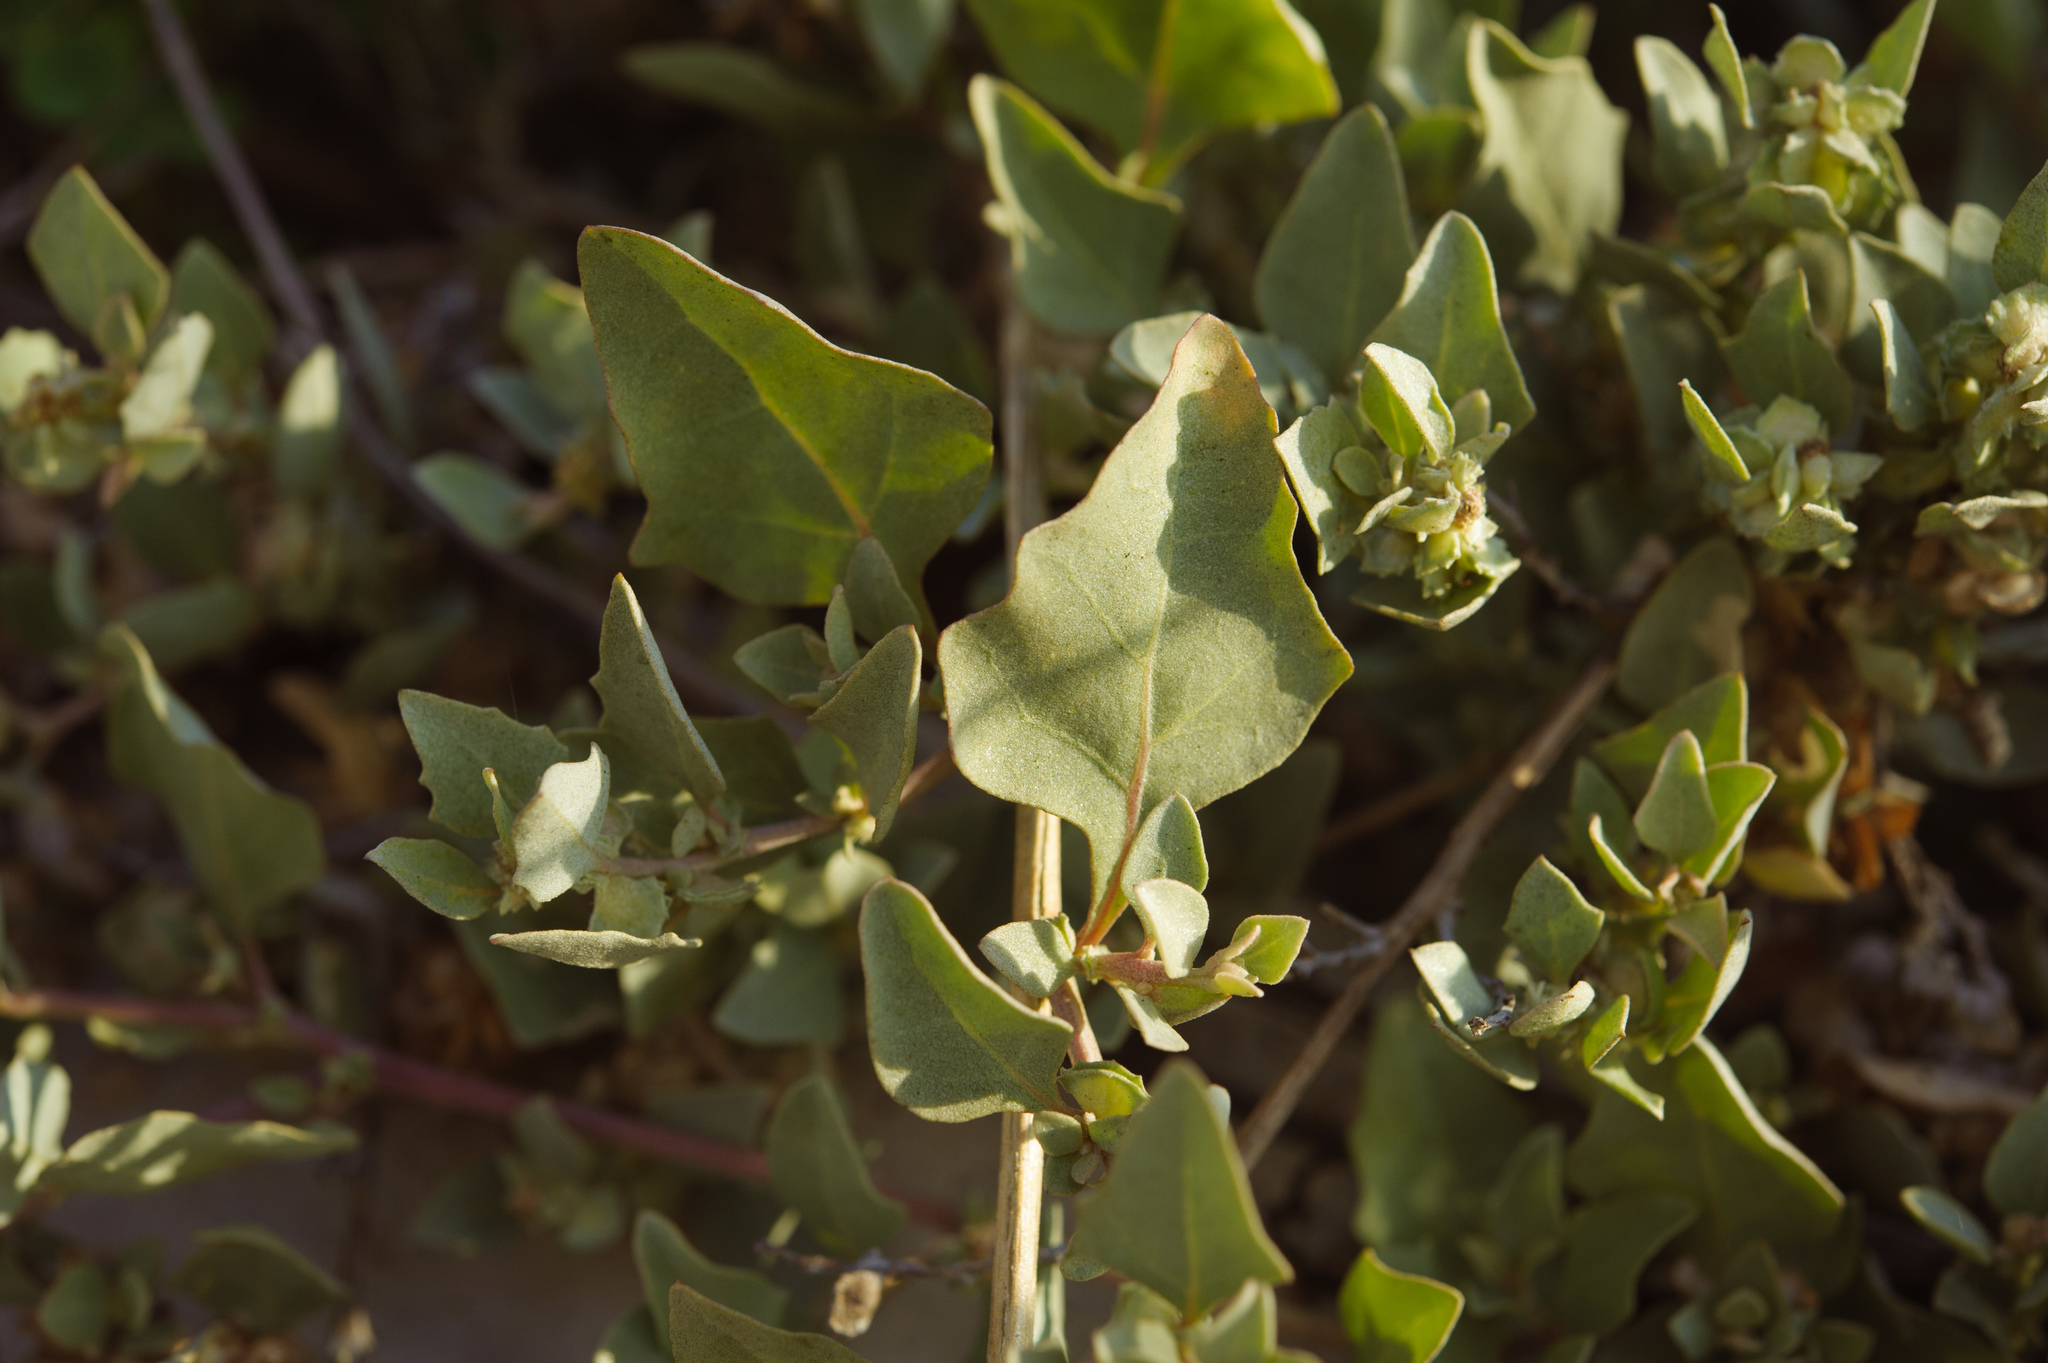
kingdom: Plantae
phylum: Tracheophyta
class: Magnoliopsida
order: Caryophyllales
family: Amaranthaceae
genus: Atriplex
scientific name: Atriplex maximowicziana
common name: Maximowicz's saltbush
